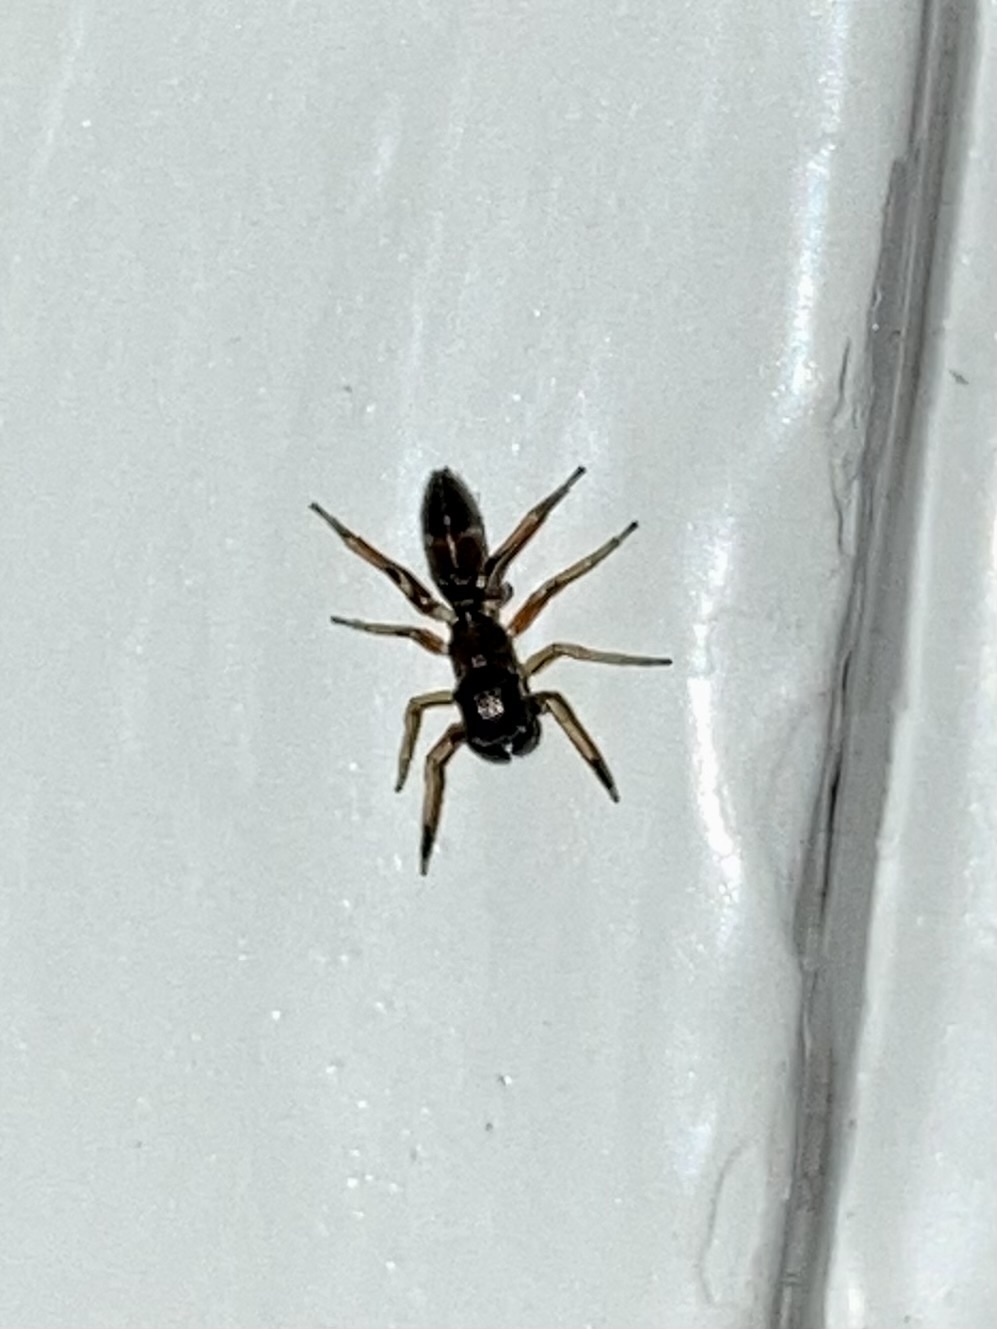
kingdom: Animalia
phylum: Arthropoda
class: Arachnida
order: Araneae
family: Salticidae
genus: Myrmarachne
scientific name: Myrmarachne formicaria
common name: Ant mimic jumping spider
